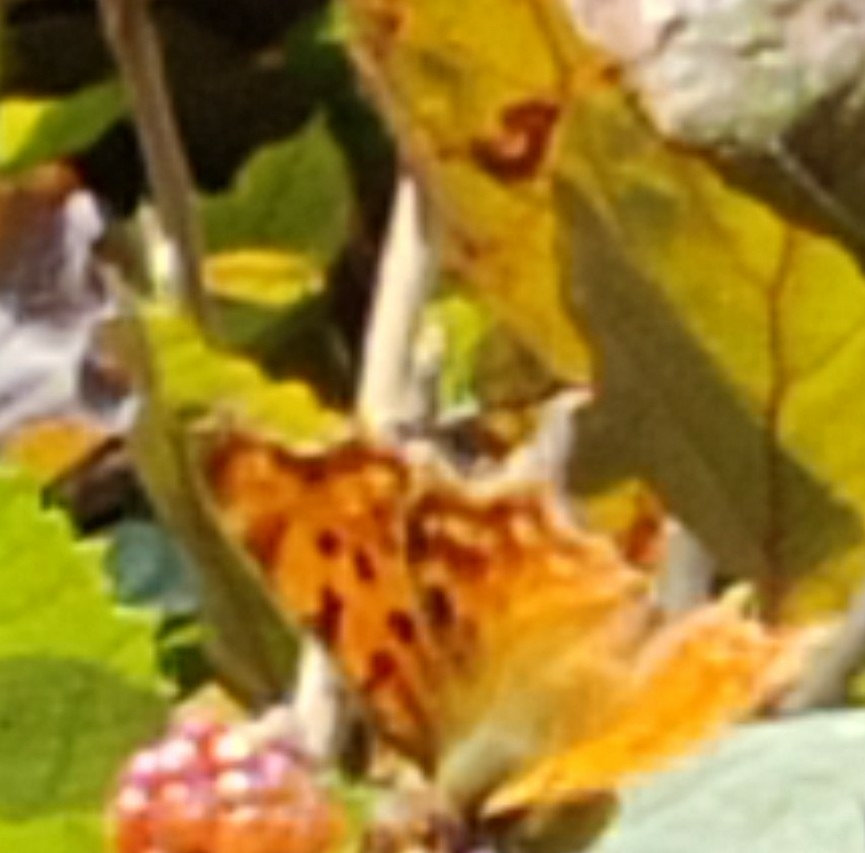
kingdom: Animalia
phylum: Arthropoda
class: Insecta
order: Lepidoptera
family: Nymphalidae
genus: Polygonia
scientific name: Polygonia c-album
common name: Comma
